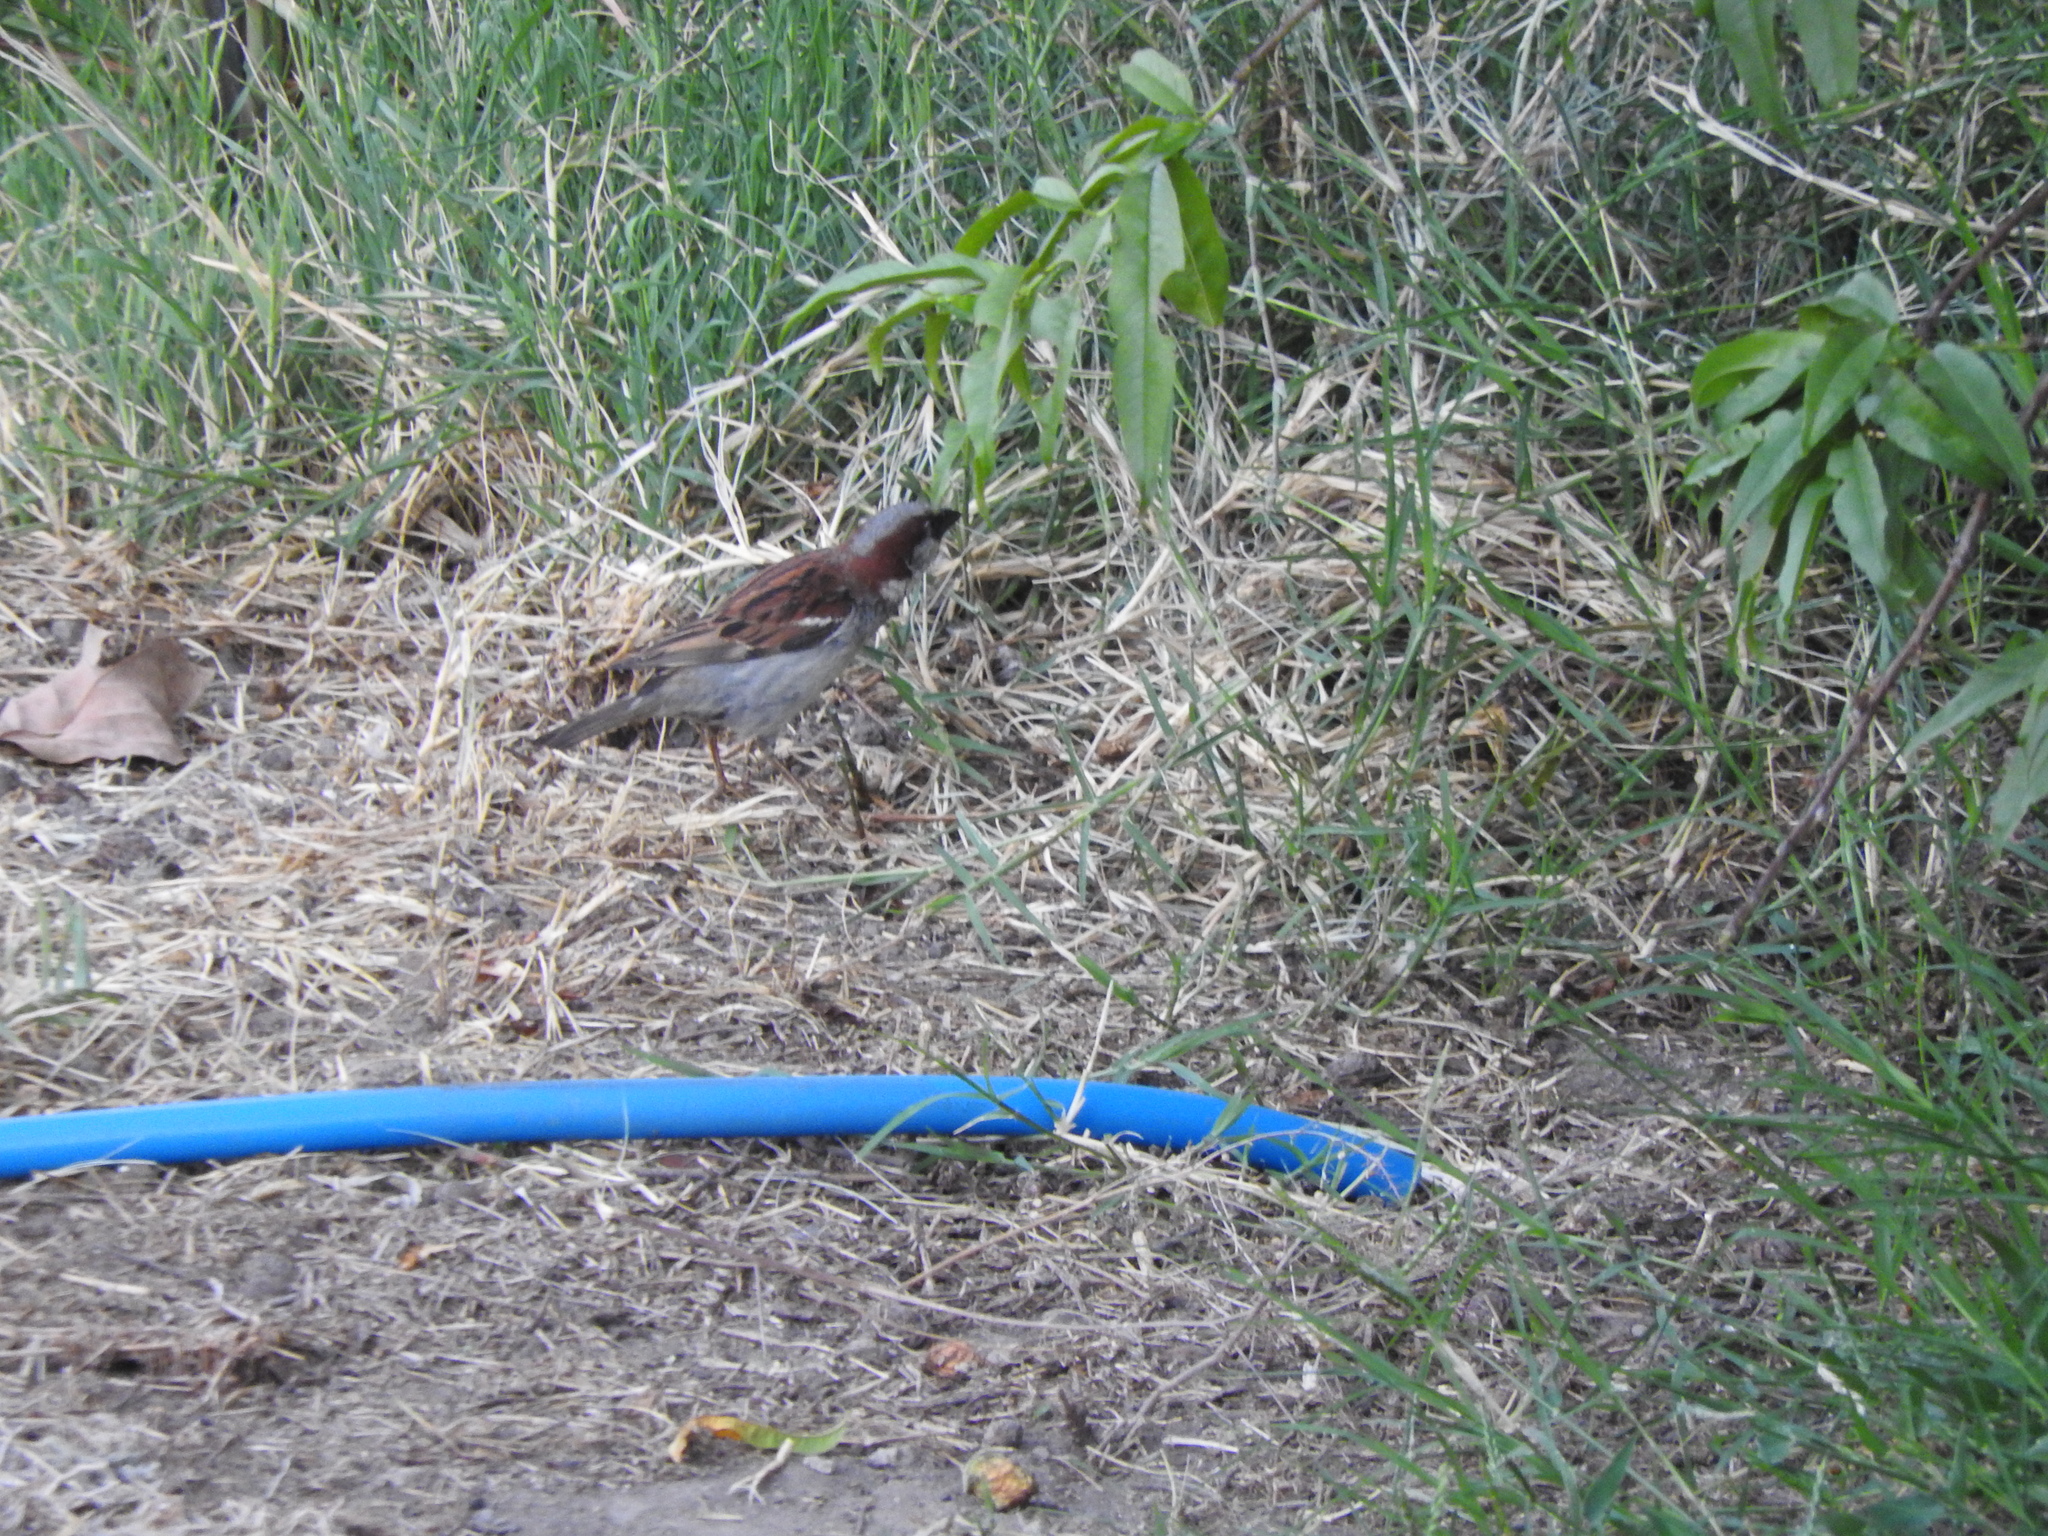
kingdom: Animalia
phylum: Chordata
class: Aves
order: Passeriformes
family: Passeridae
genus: Passer
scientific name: Passer domesticus
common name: House sparrow
